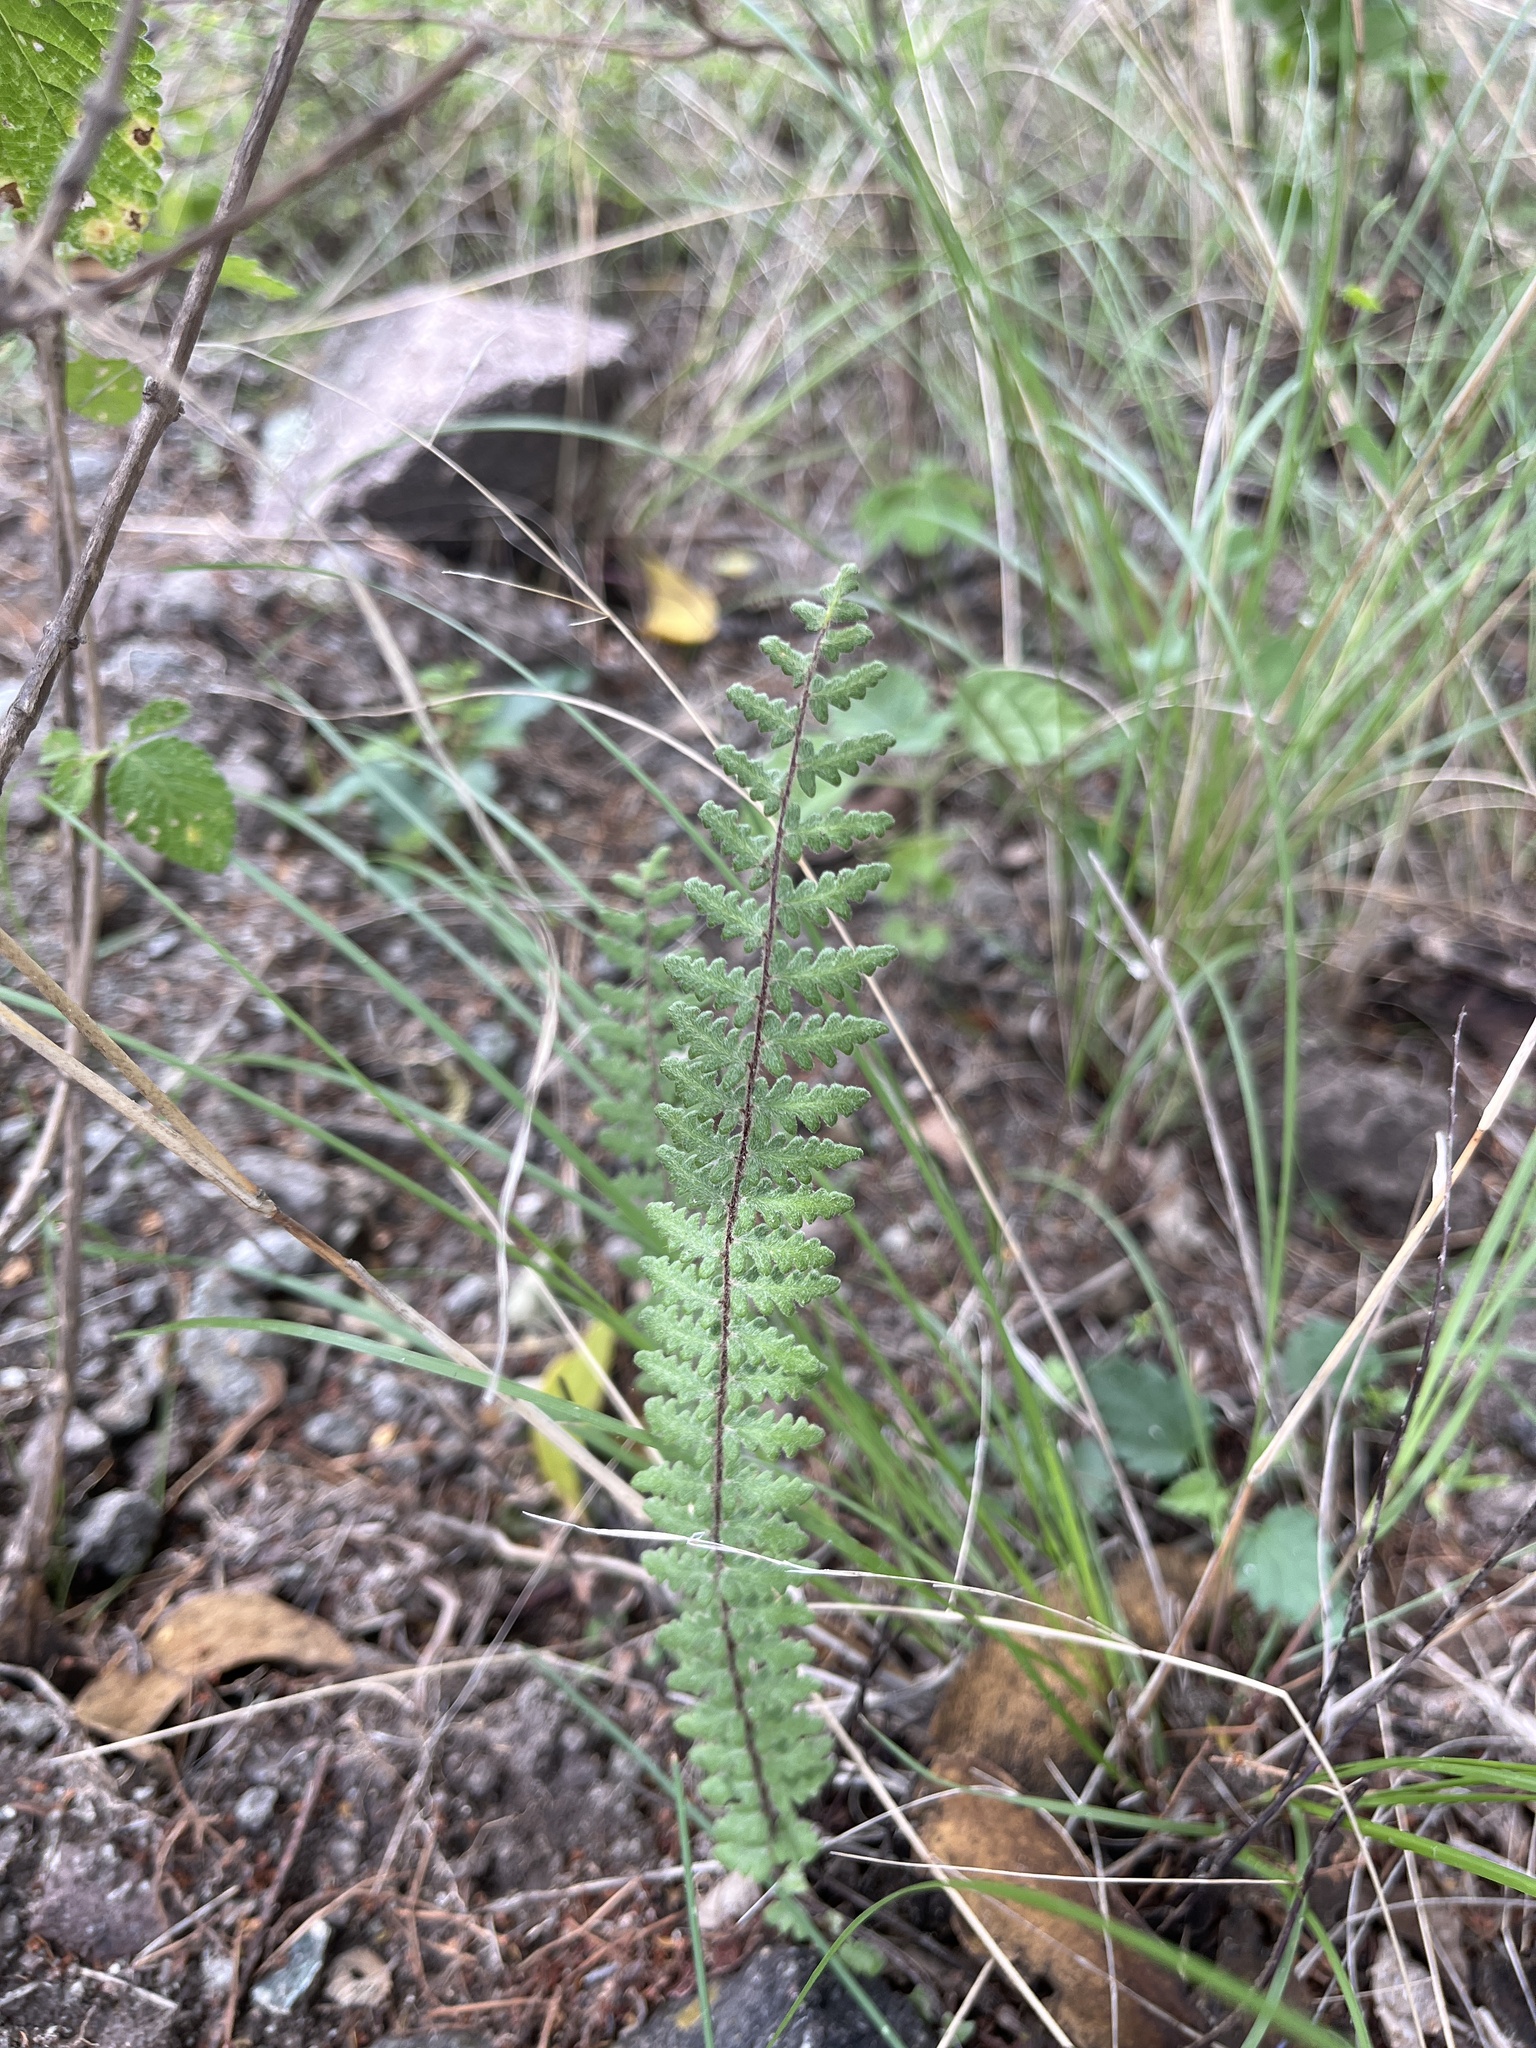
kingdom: Plantae
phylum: Tracheophyta
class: Polypodiopsida
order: Polypodiales
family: Pteridaceae
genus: Myriopteris
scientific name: Myriopteris aurea
